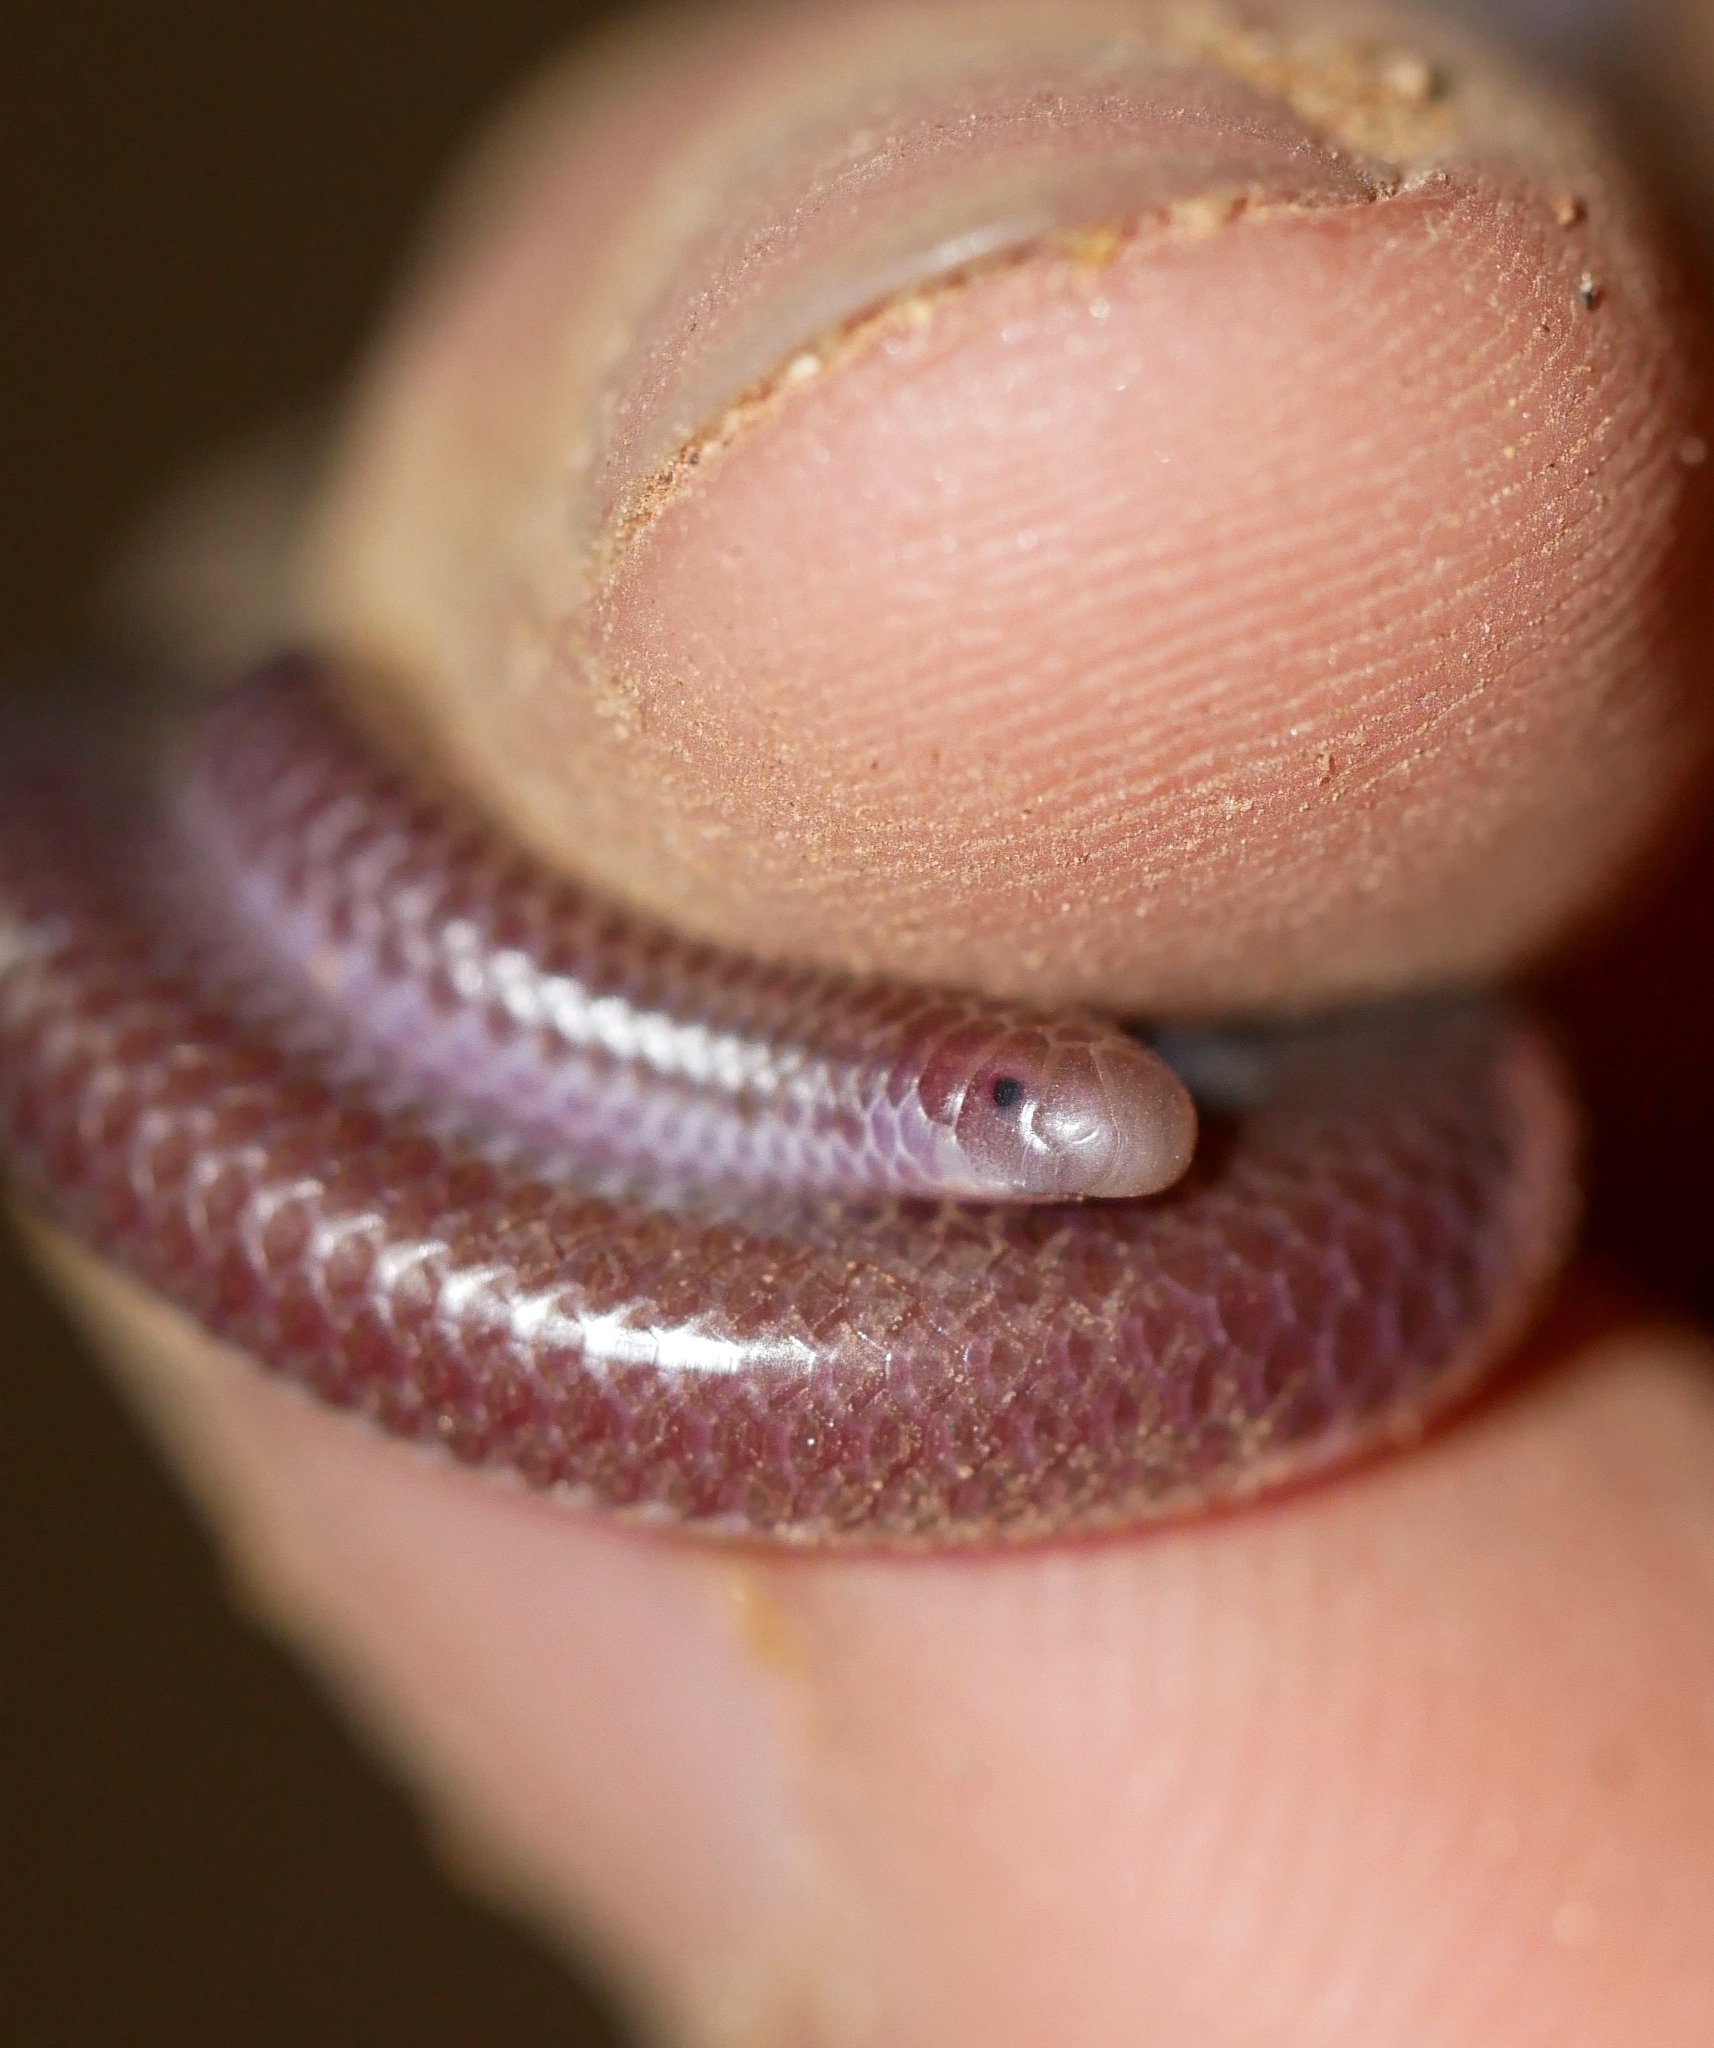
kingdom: Animalia
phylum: Chordata
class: Squamata
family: Leptotyphlopidae
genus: Rena
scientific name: Rena humilis
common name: Western threadsnake
